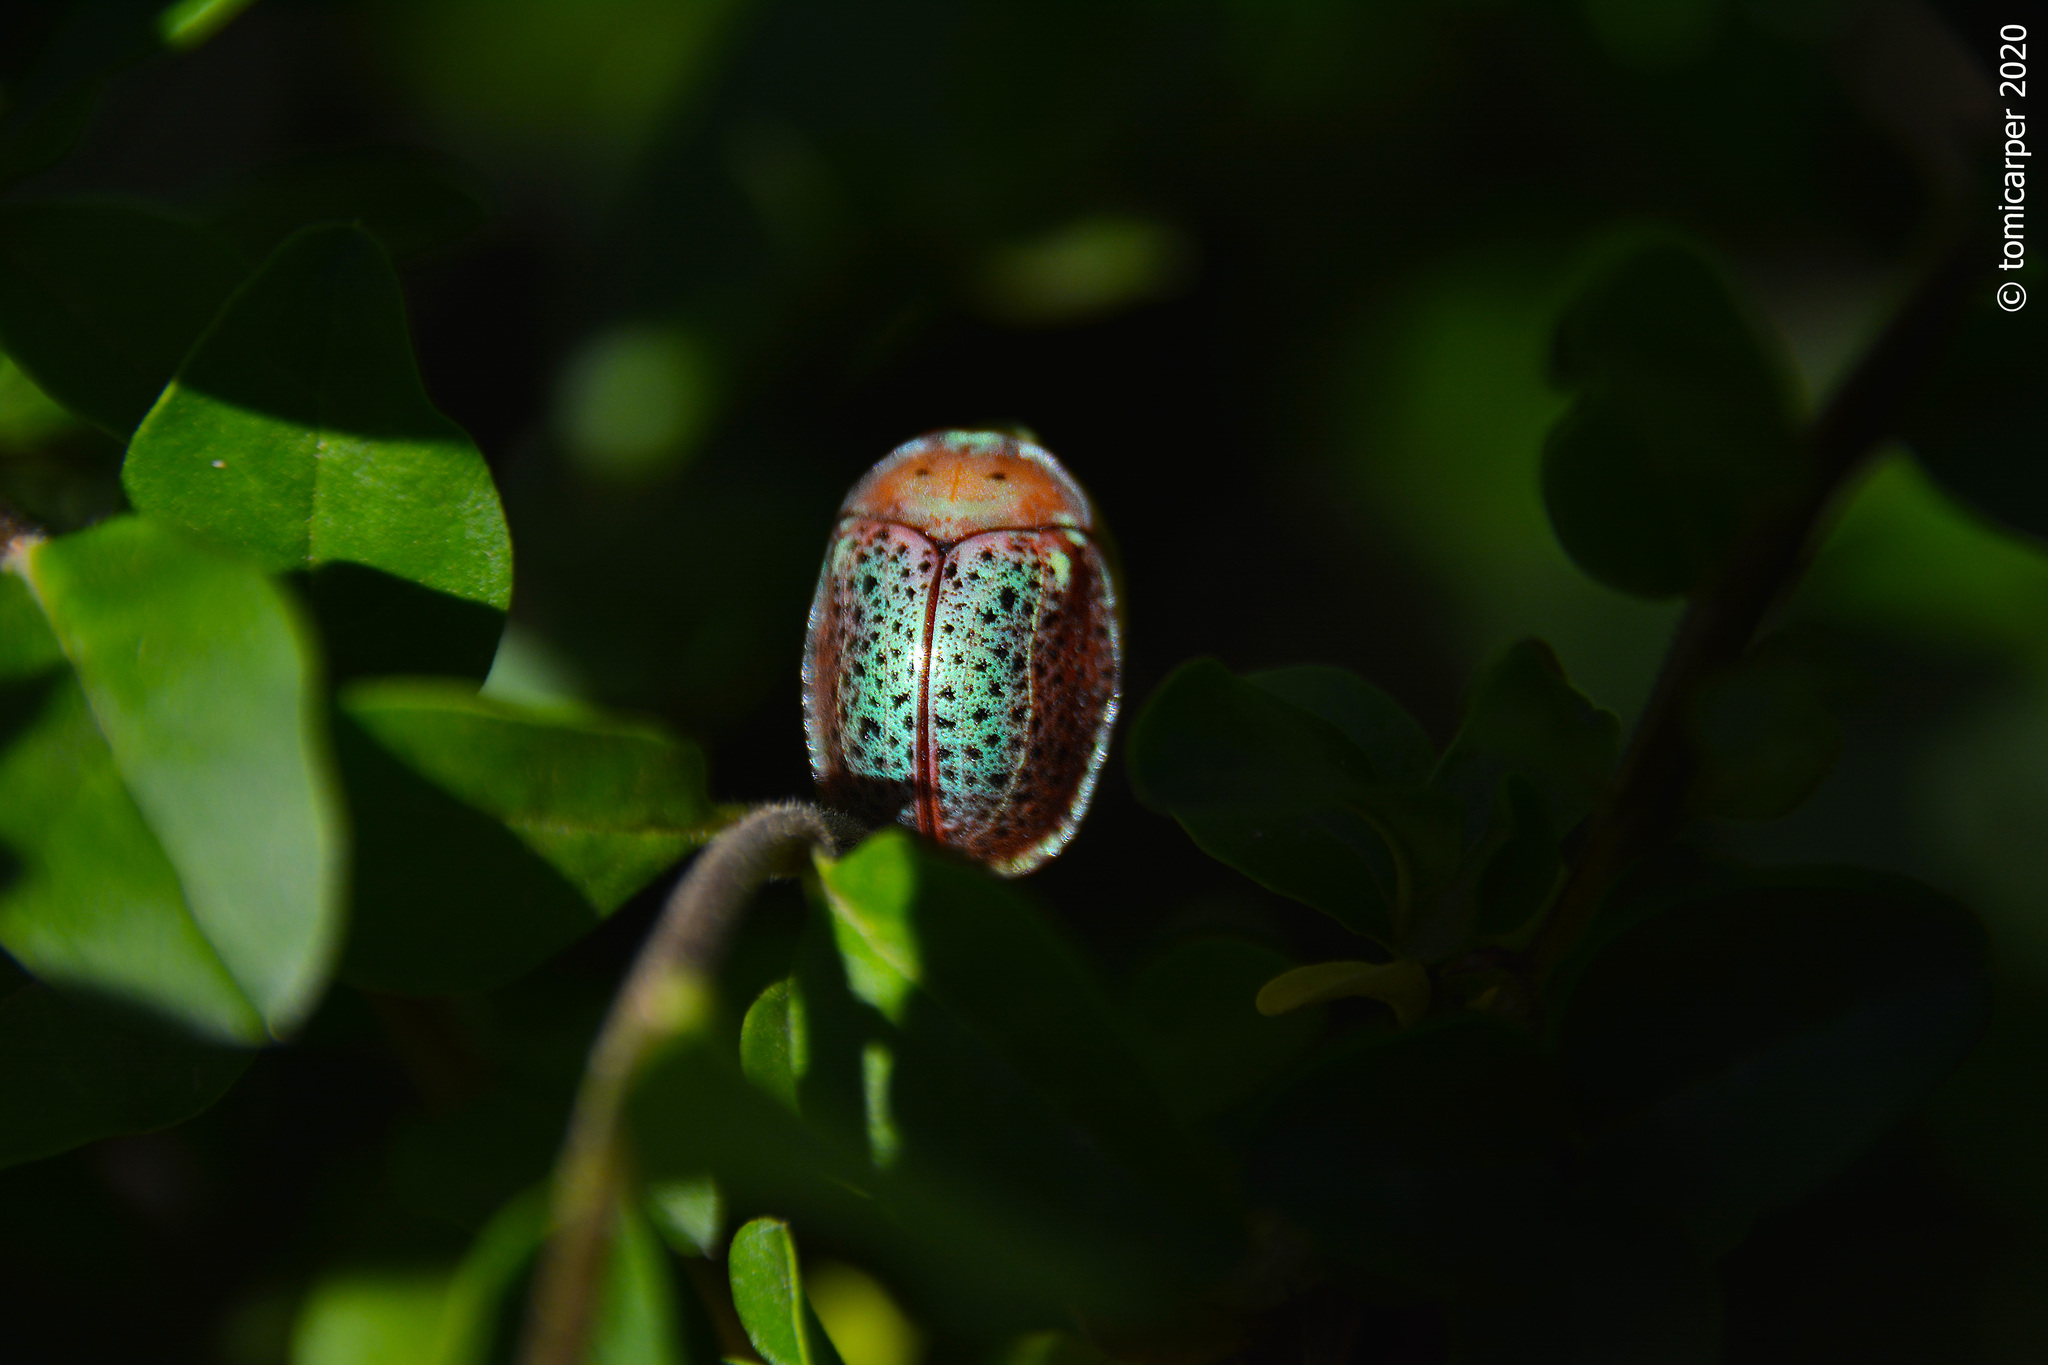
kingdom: Animalia
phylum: Arthropoda
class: Insecta
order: Coleoptera
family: Chrysomelidae
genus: Chelymorpha
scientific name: Chelymorpha varians
